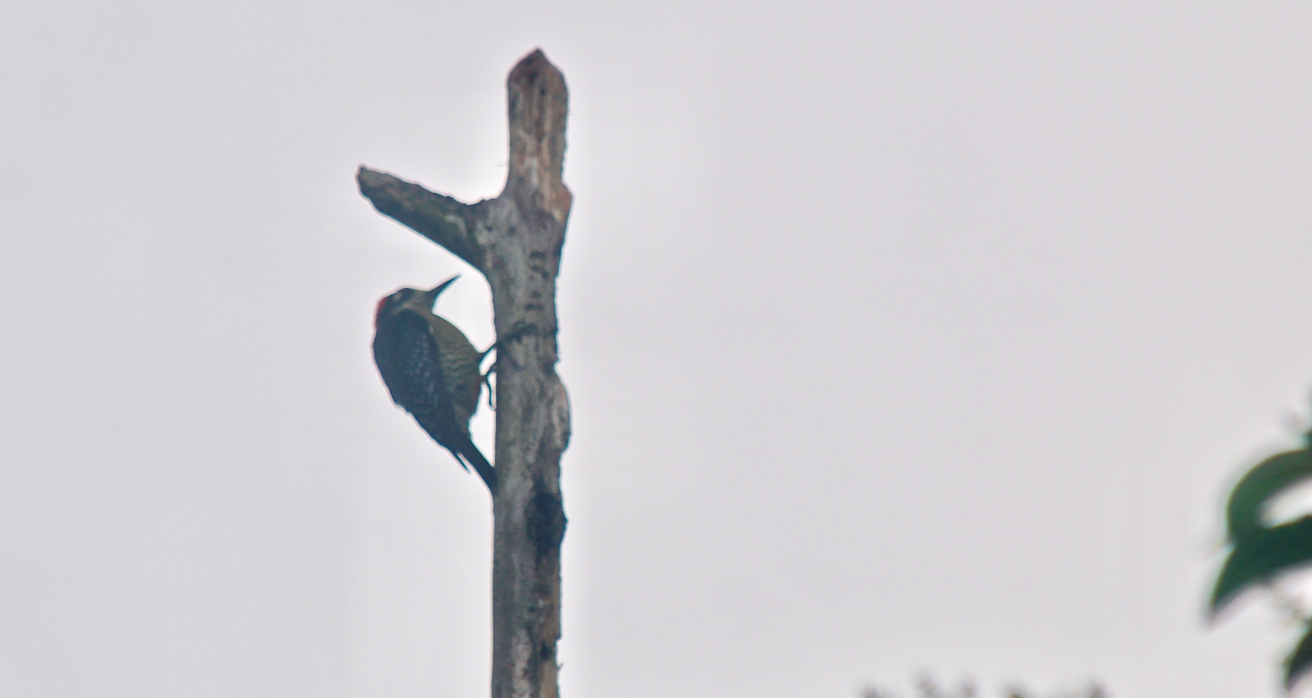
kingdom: Animalia
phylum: Chordata
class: Aves
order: Piciformes
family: Picidae
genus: Melanerpes
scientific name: Melanerpes pucherani
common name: Black-cheeked woodpecker
